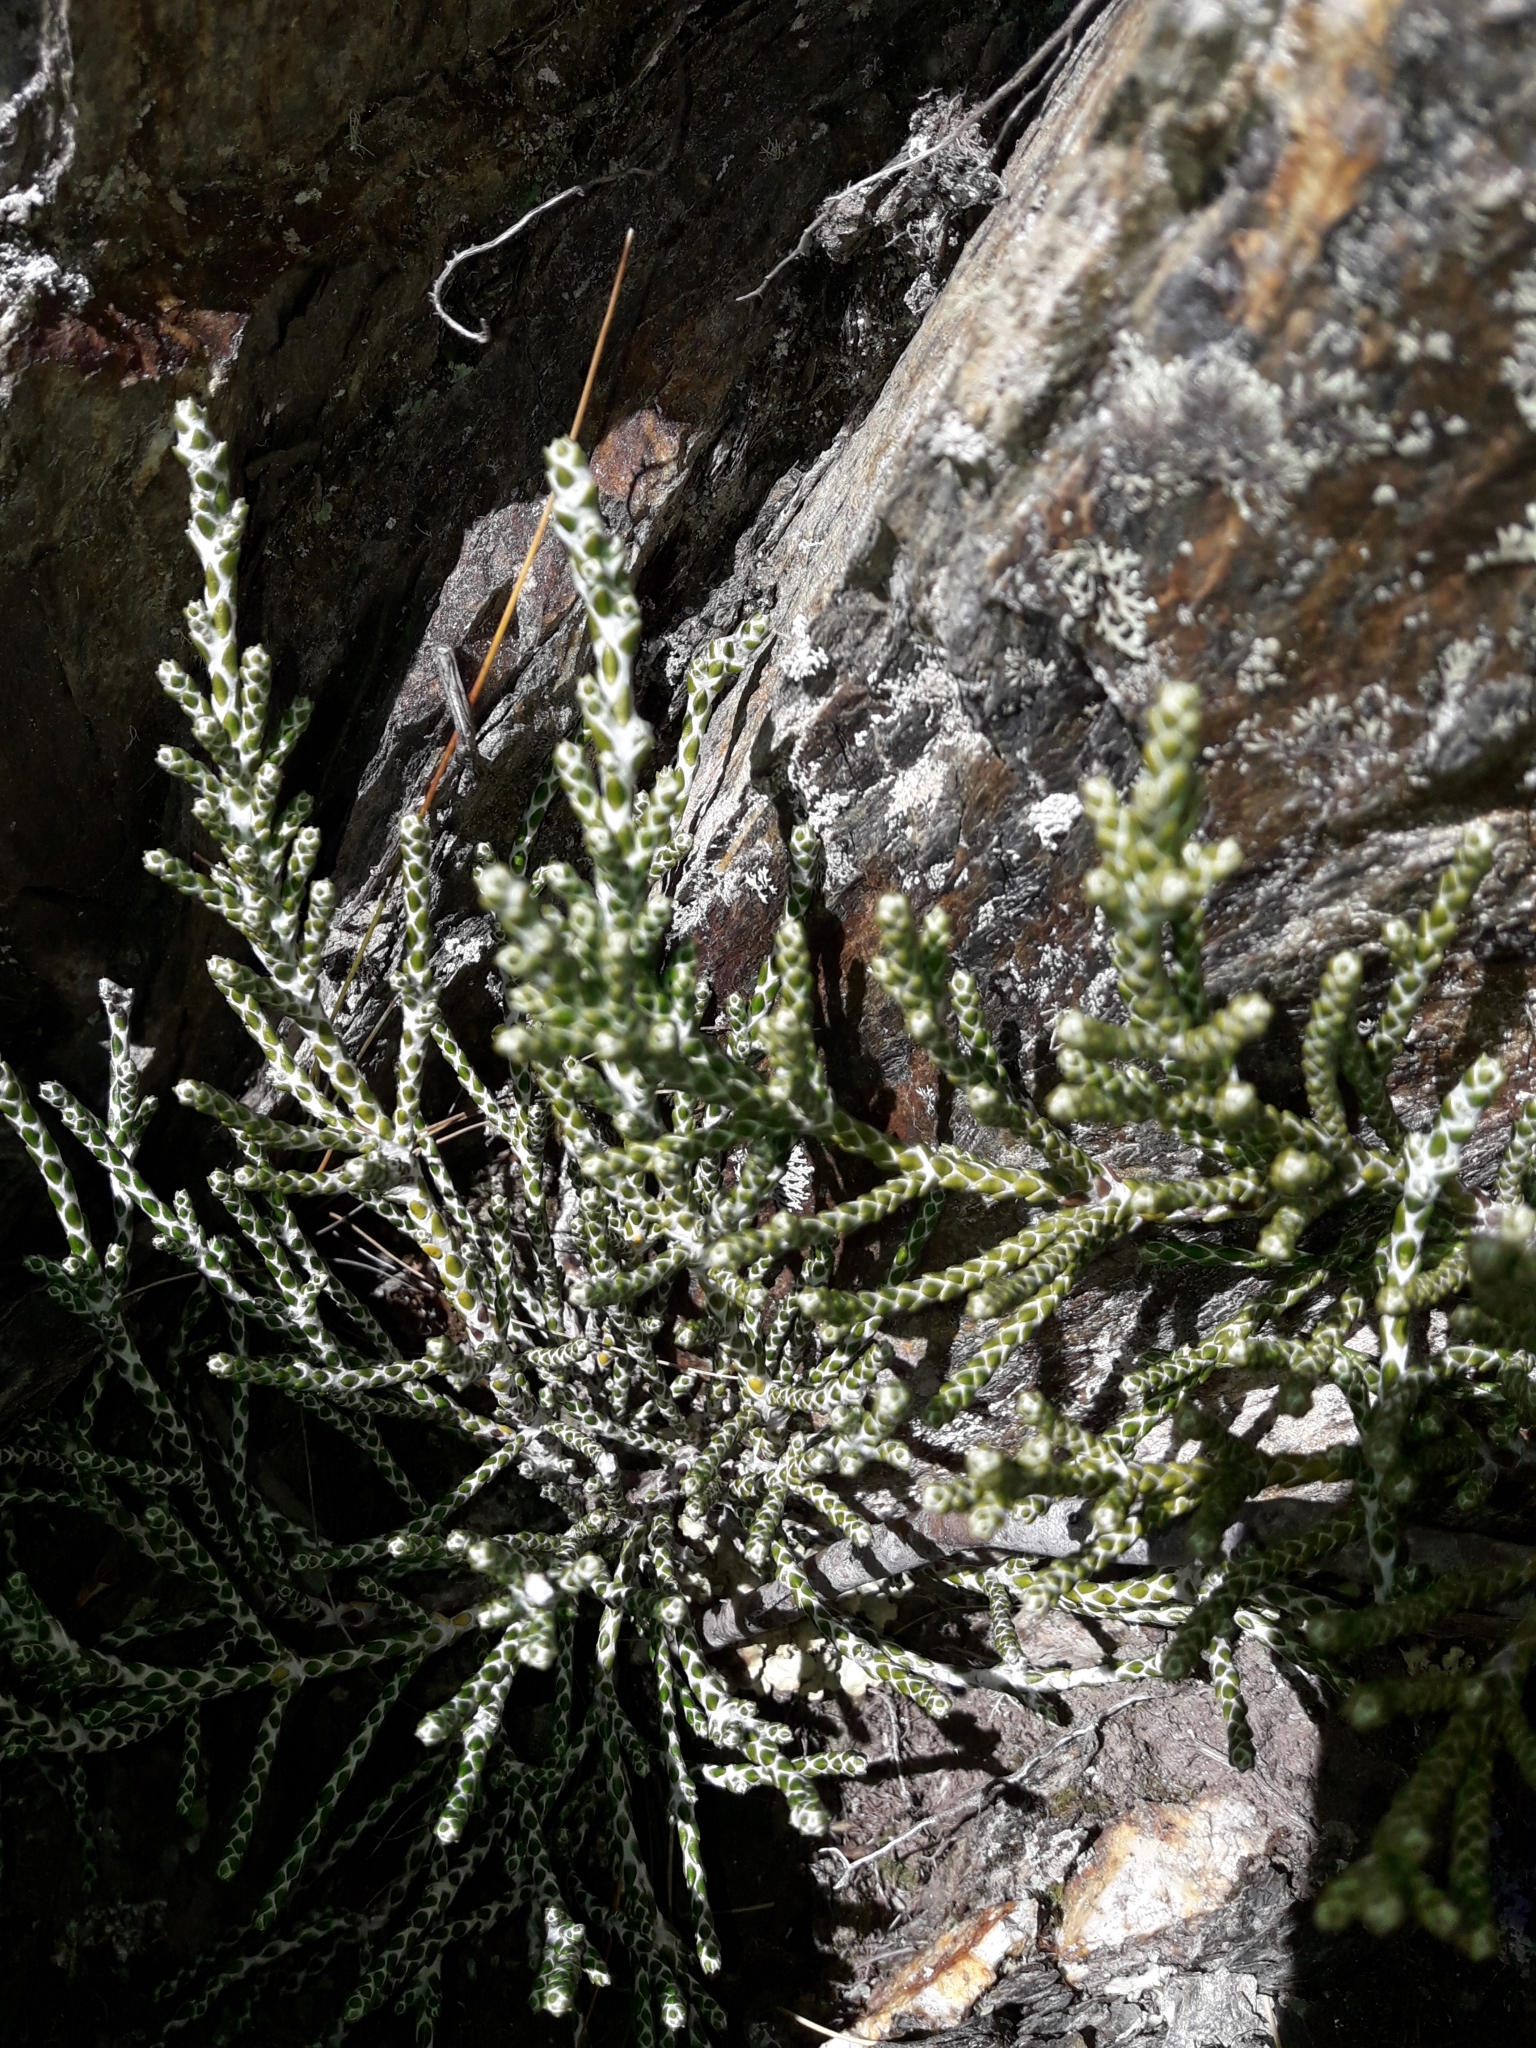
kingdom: Plantae
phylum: Tracheophyta
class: Magnoliopsida
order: Asterales
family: Asteraceae
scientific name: Asteraceae
